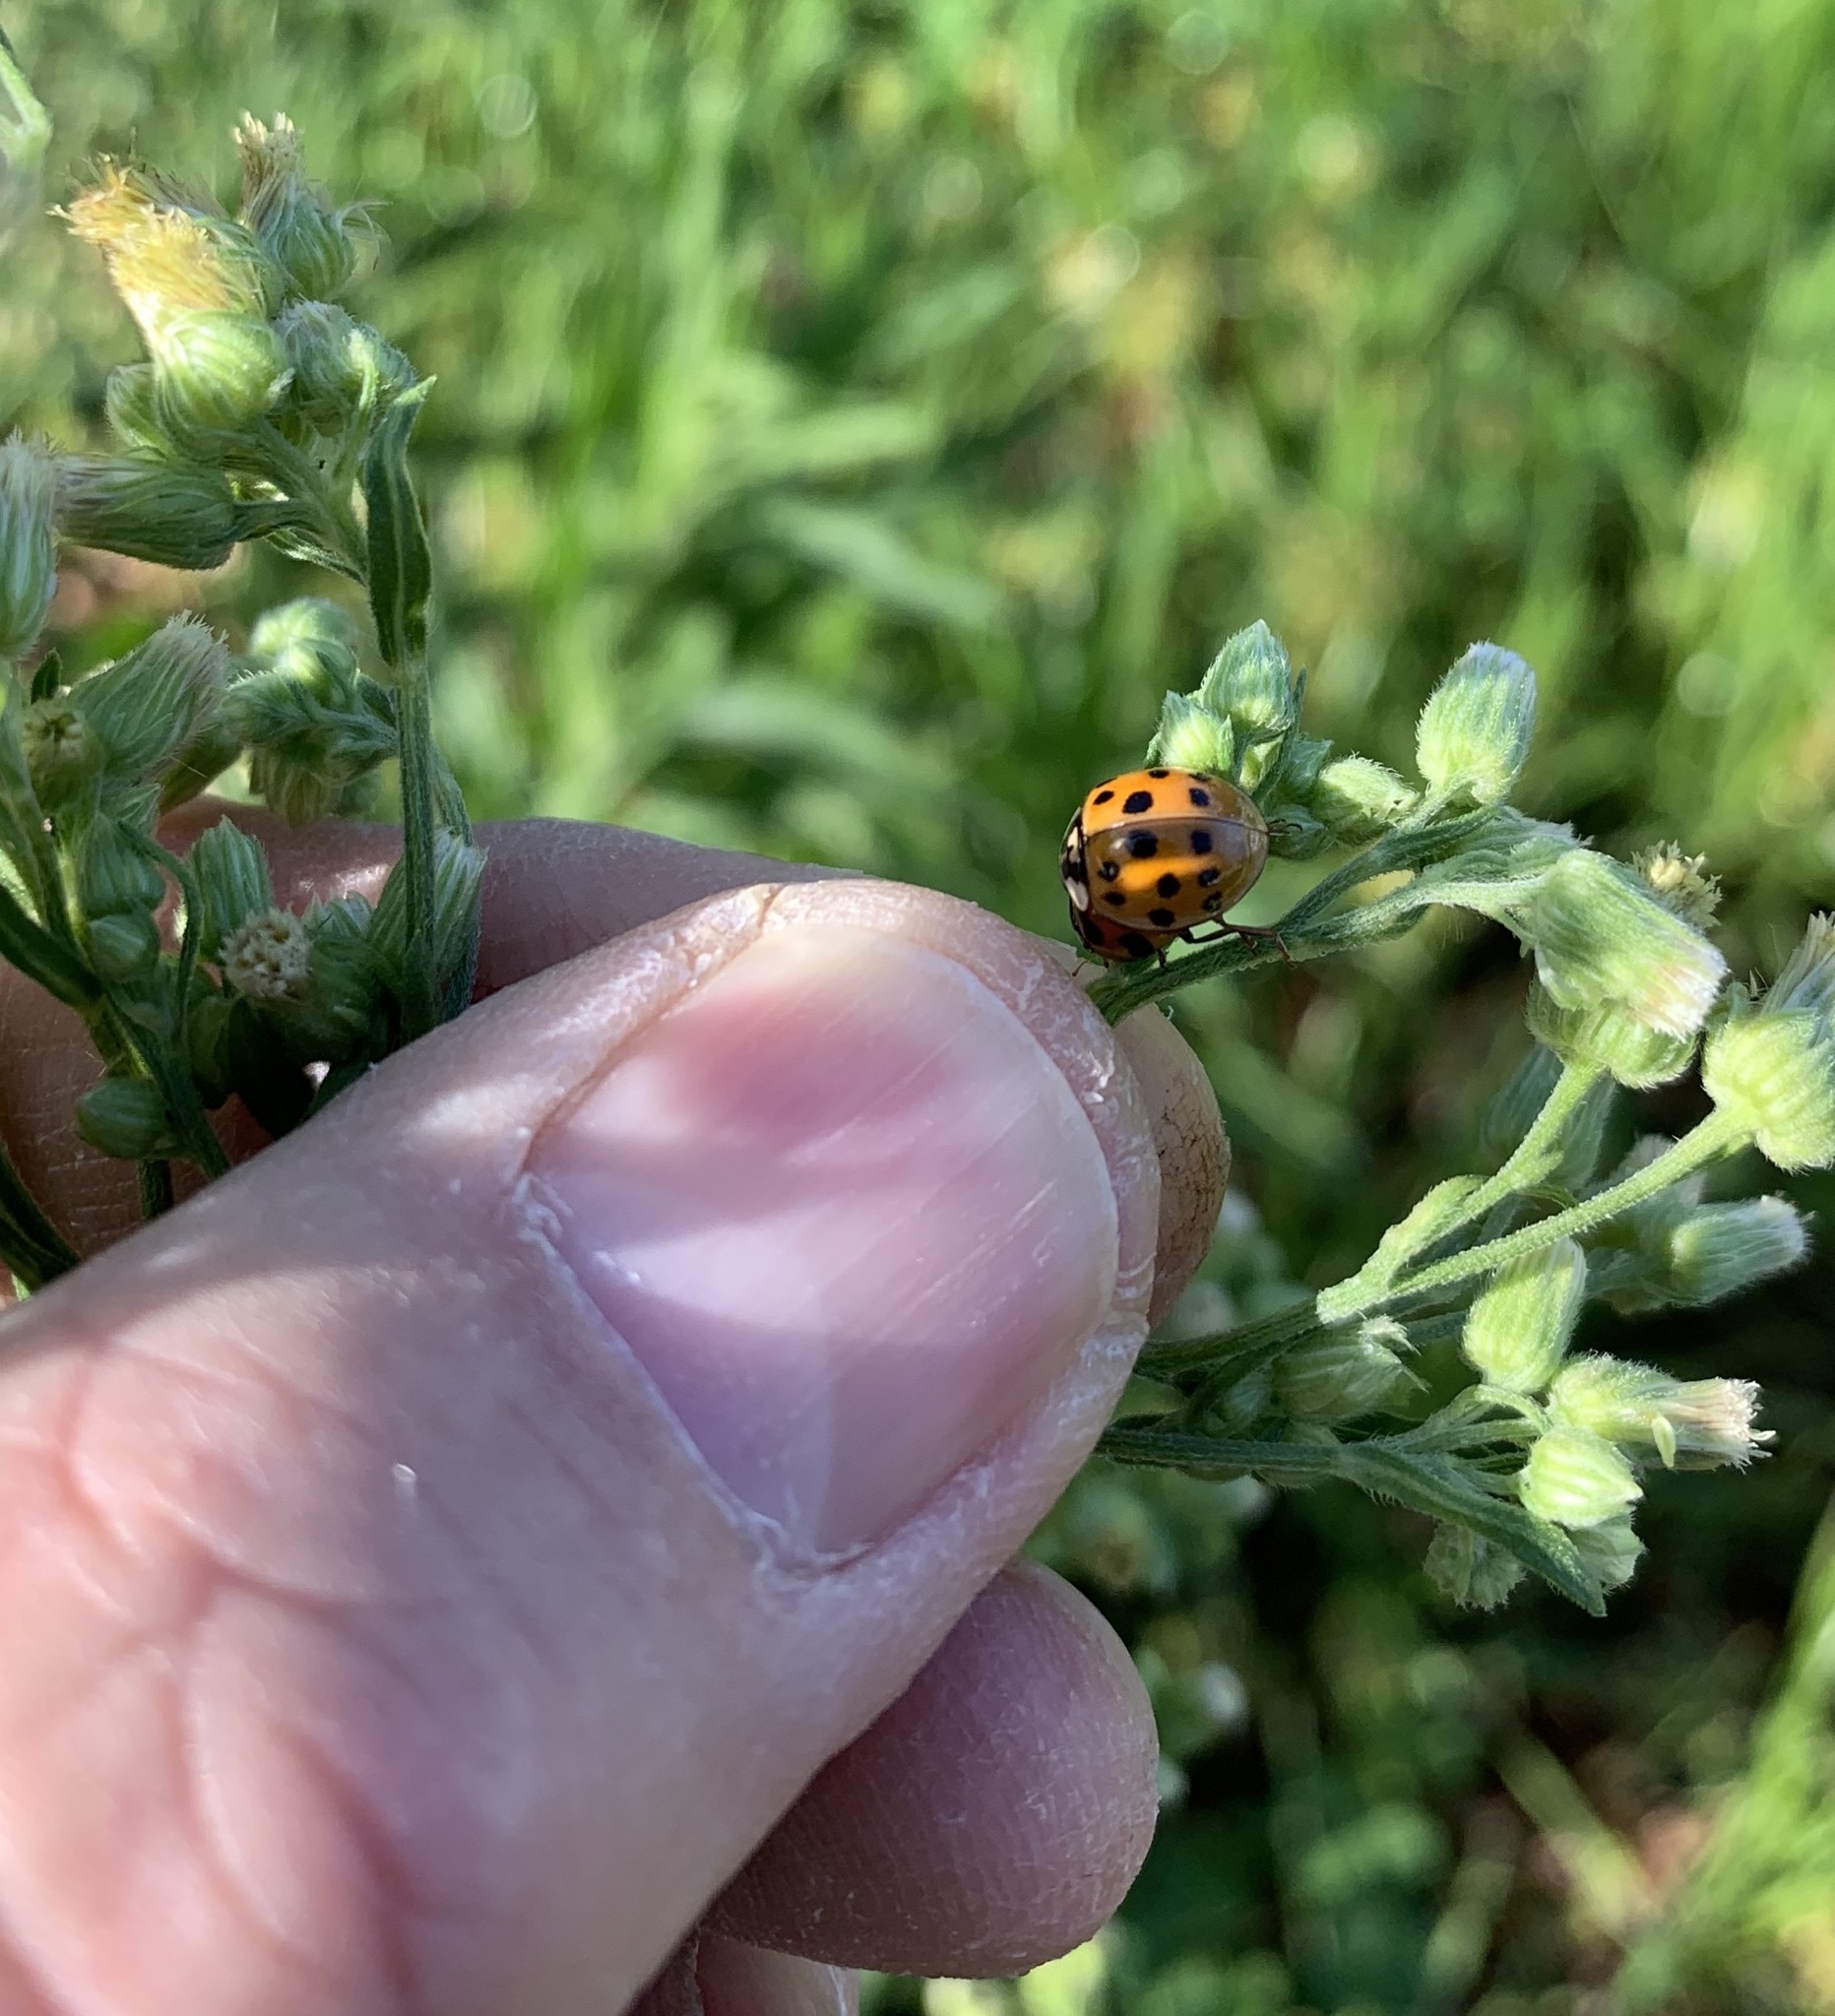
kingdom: Animalia
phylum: Arthropoda
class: Insecta
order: Coleoptera
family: Coccinellidae
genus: Harmonia
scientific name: Harmonia axyridis
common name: Harlequin ladybird
